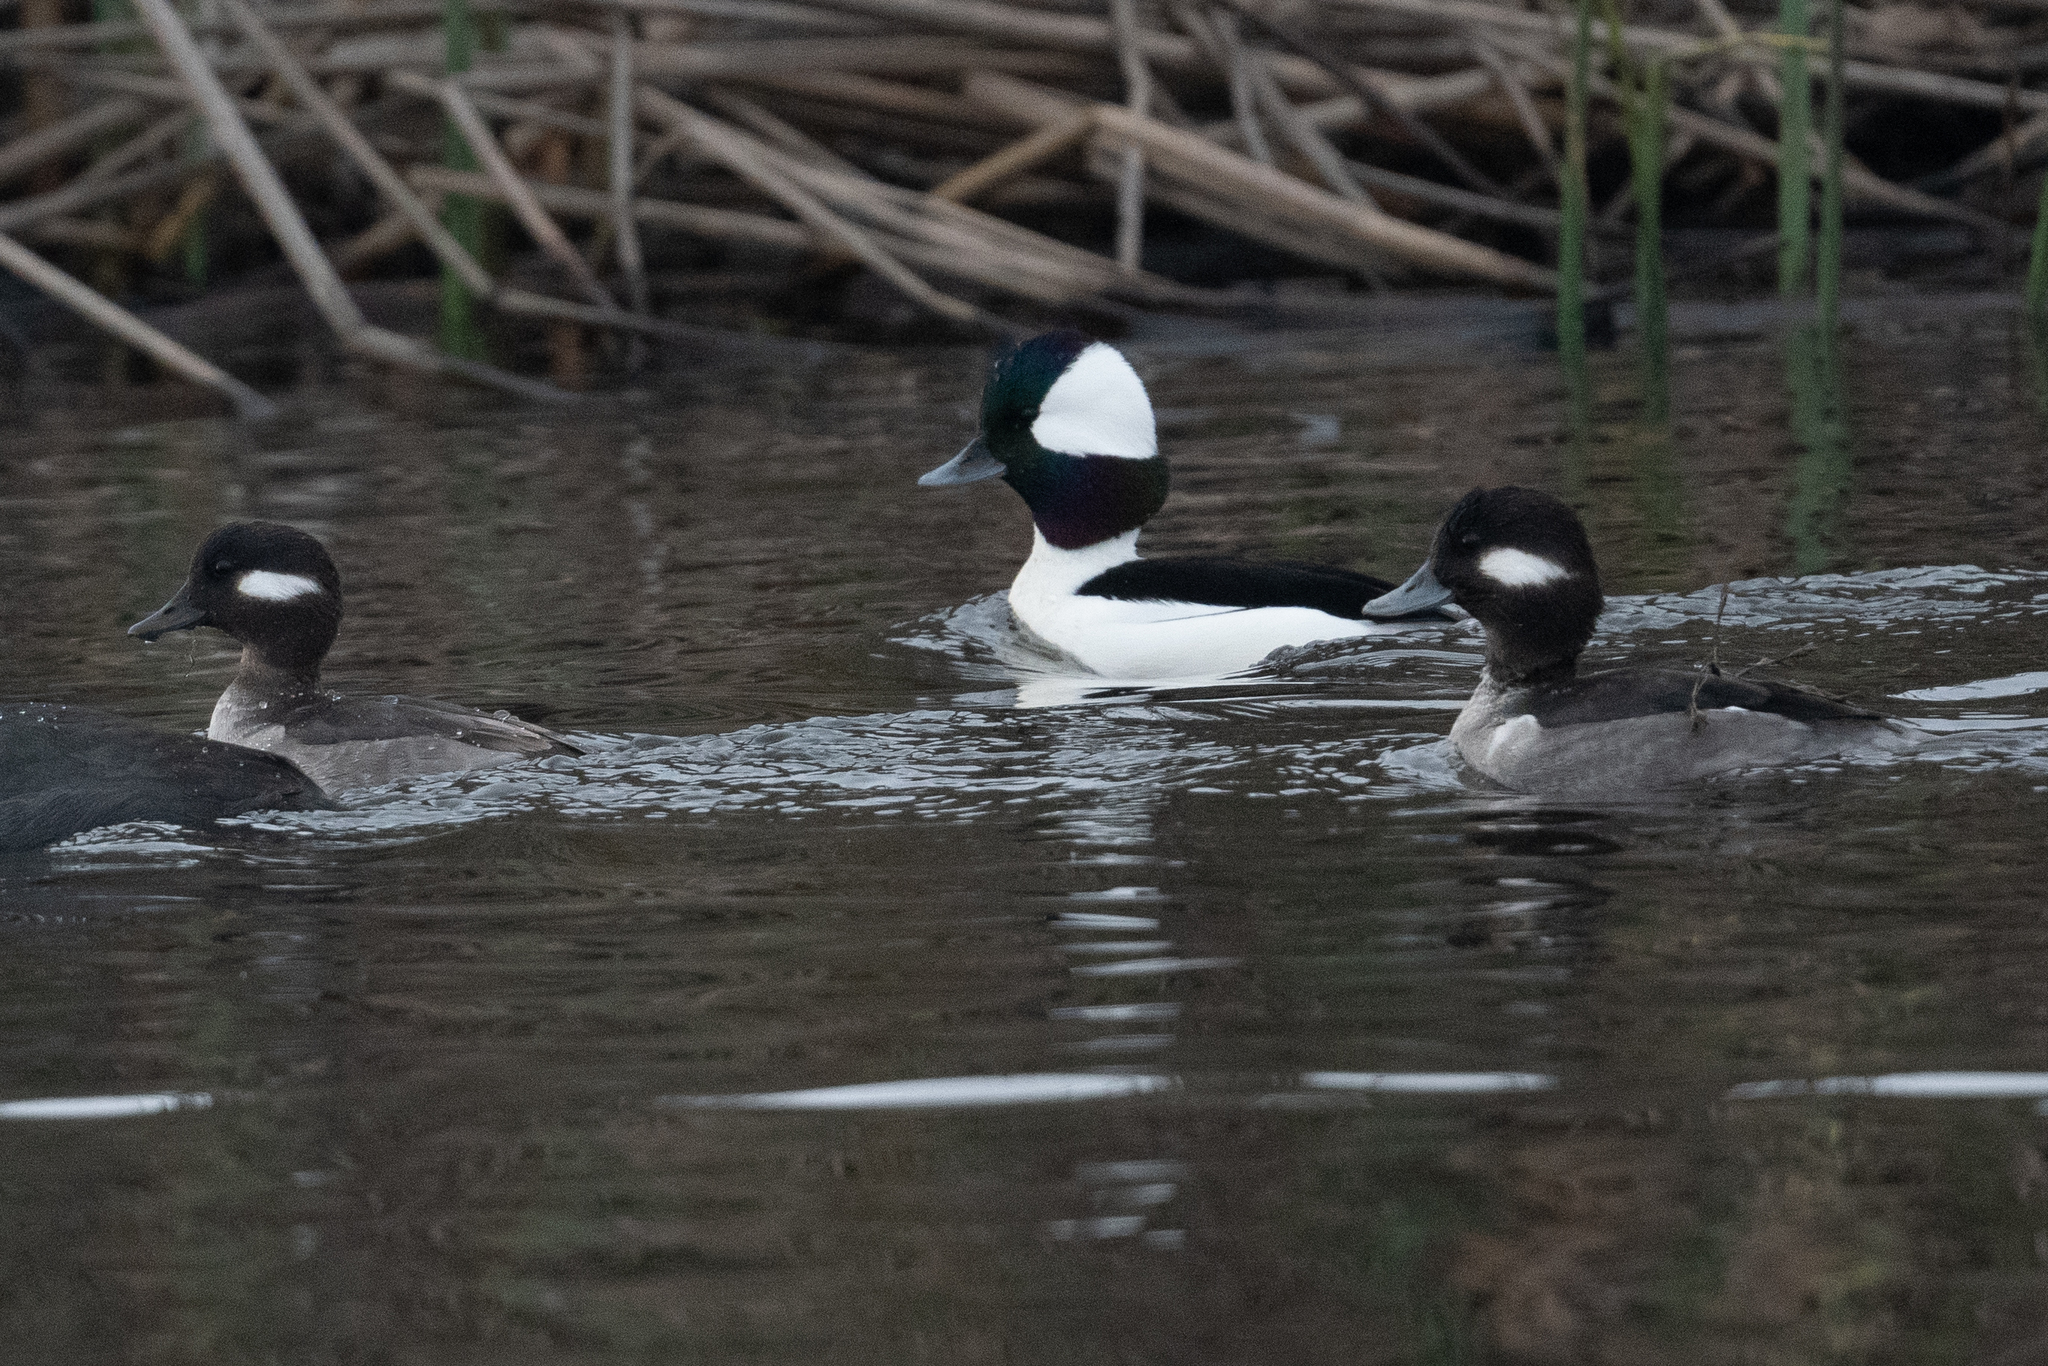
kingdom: Animalia
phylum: Chordata
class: Aves
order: Anseriformes
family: Anatidae
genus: Bucephala
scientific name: Bucephala albeola
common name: Bufflehead
